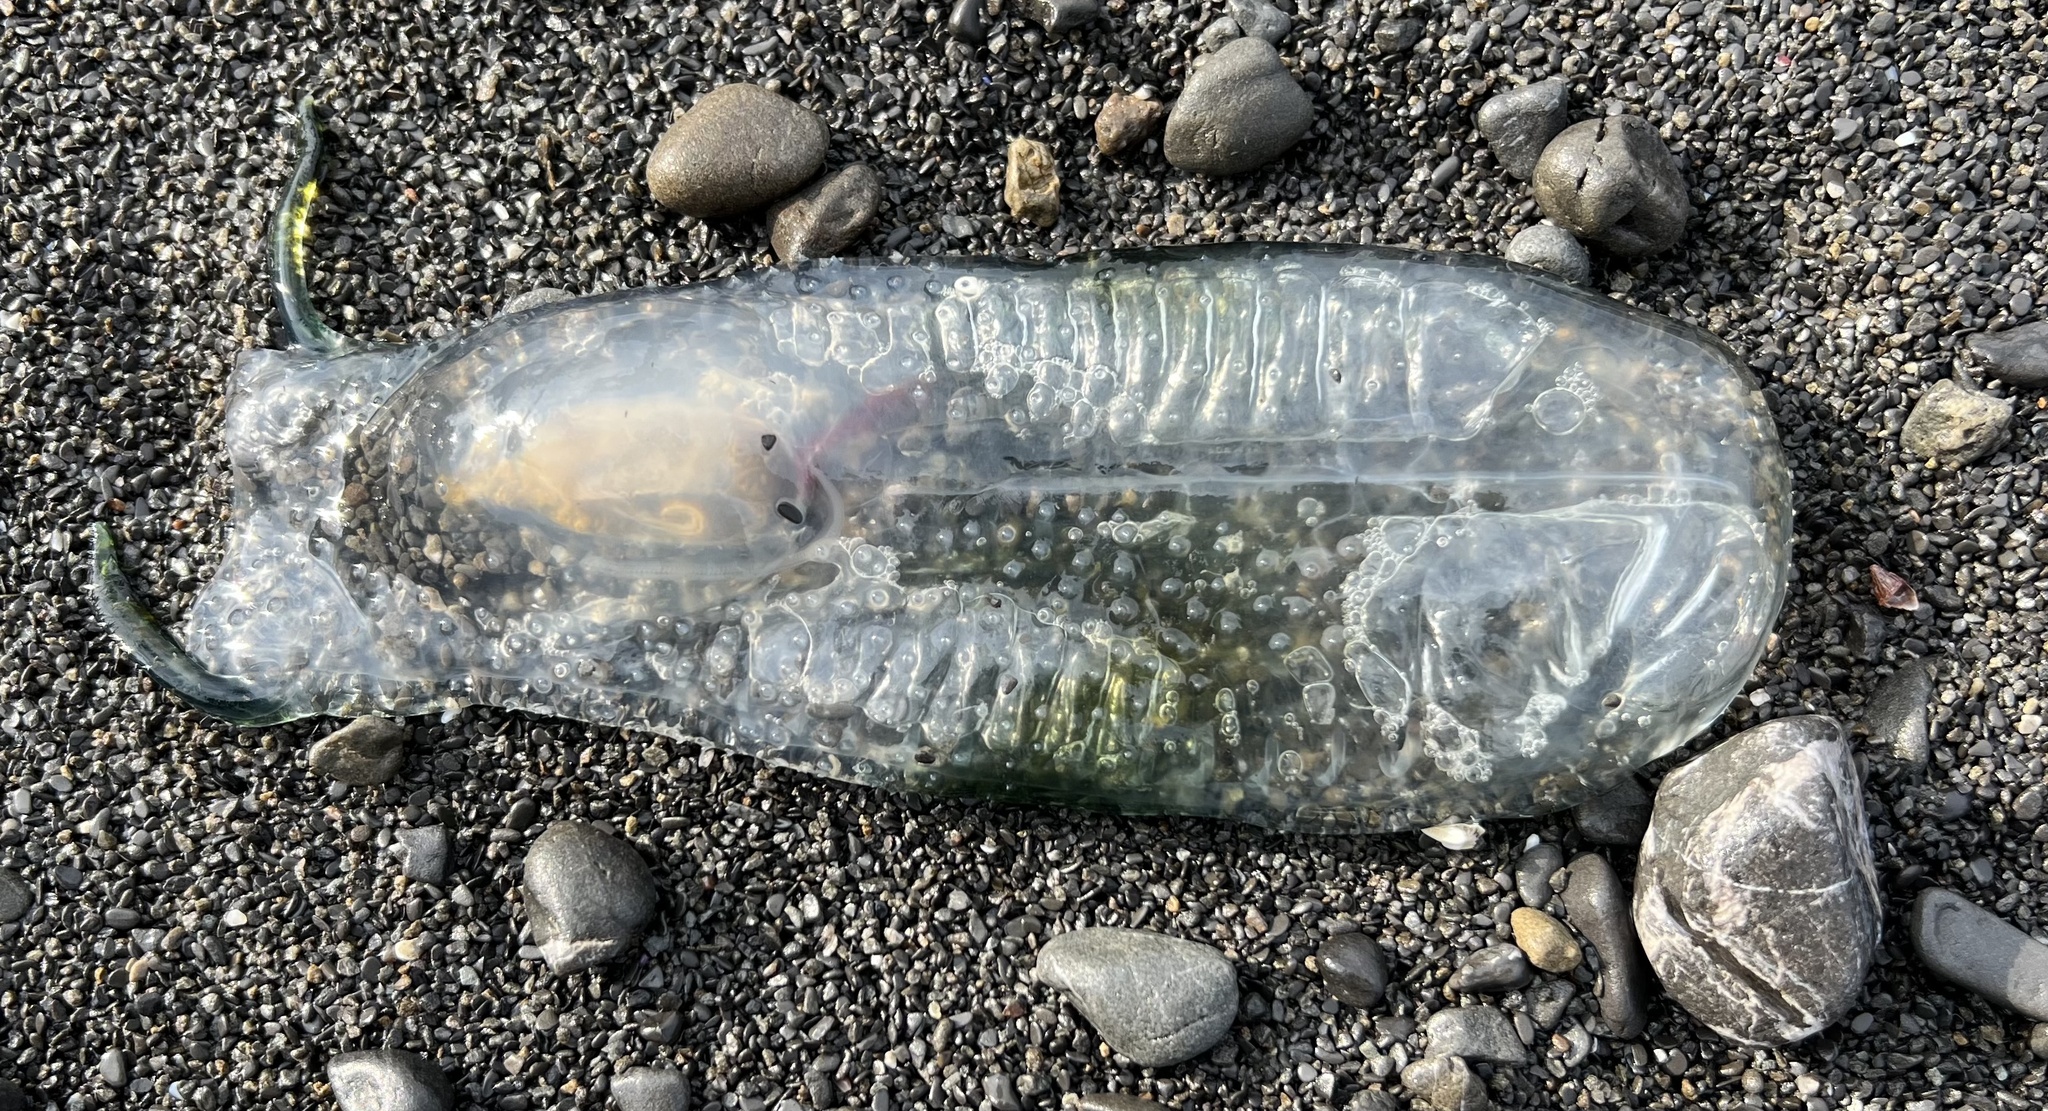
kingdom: Animalia
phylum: Chordata
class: Thaliacea
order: Salpida
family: Salpidae
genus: Thetys
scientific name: Thetys vagina
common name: Vagina salp
